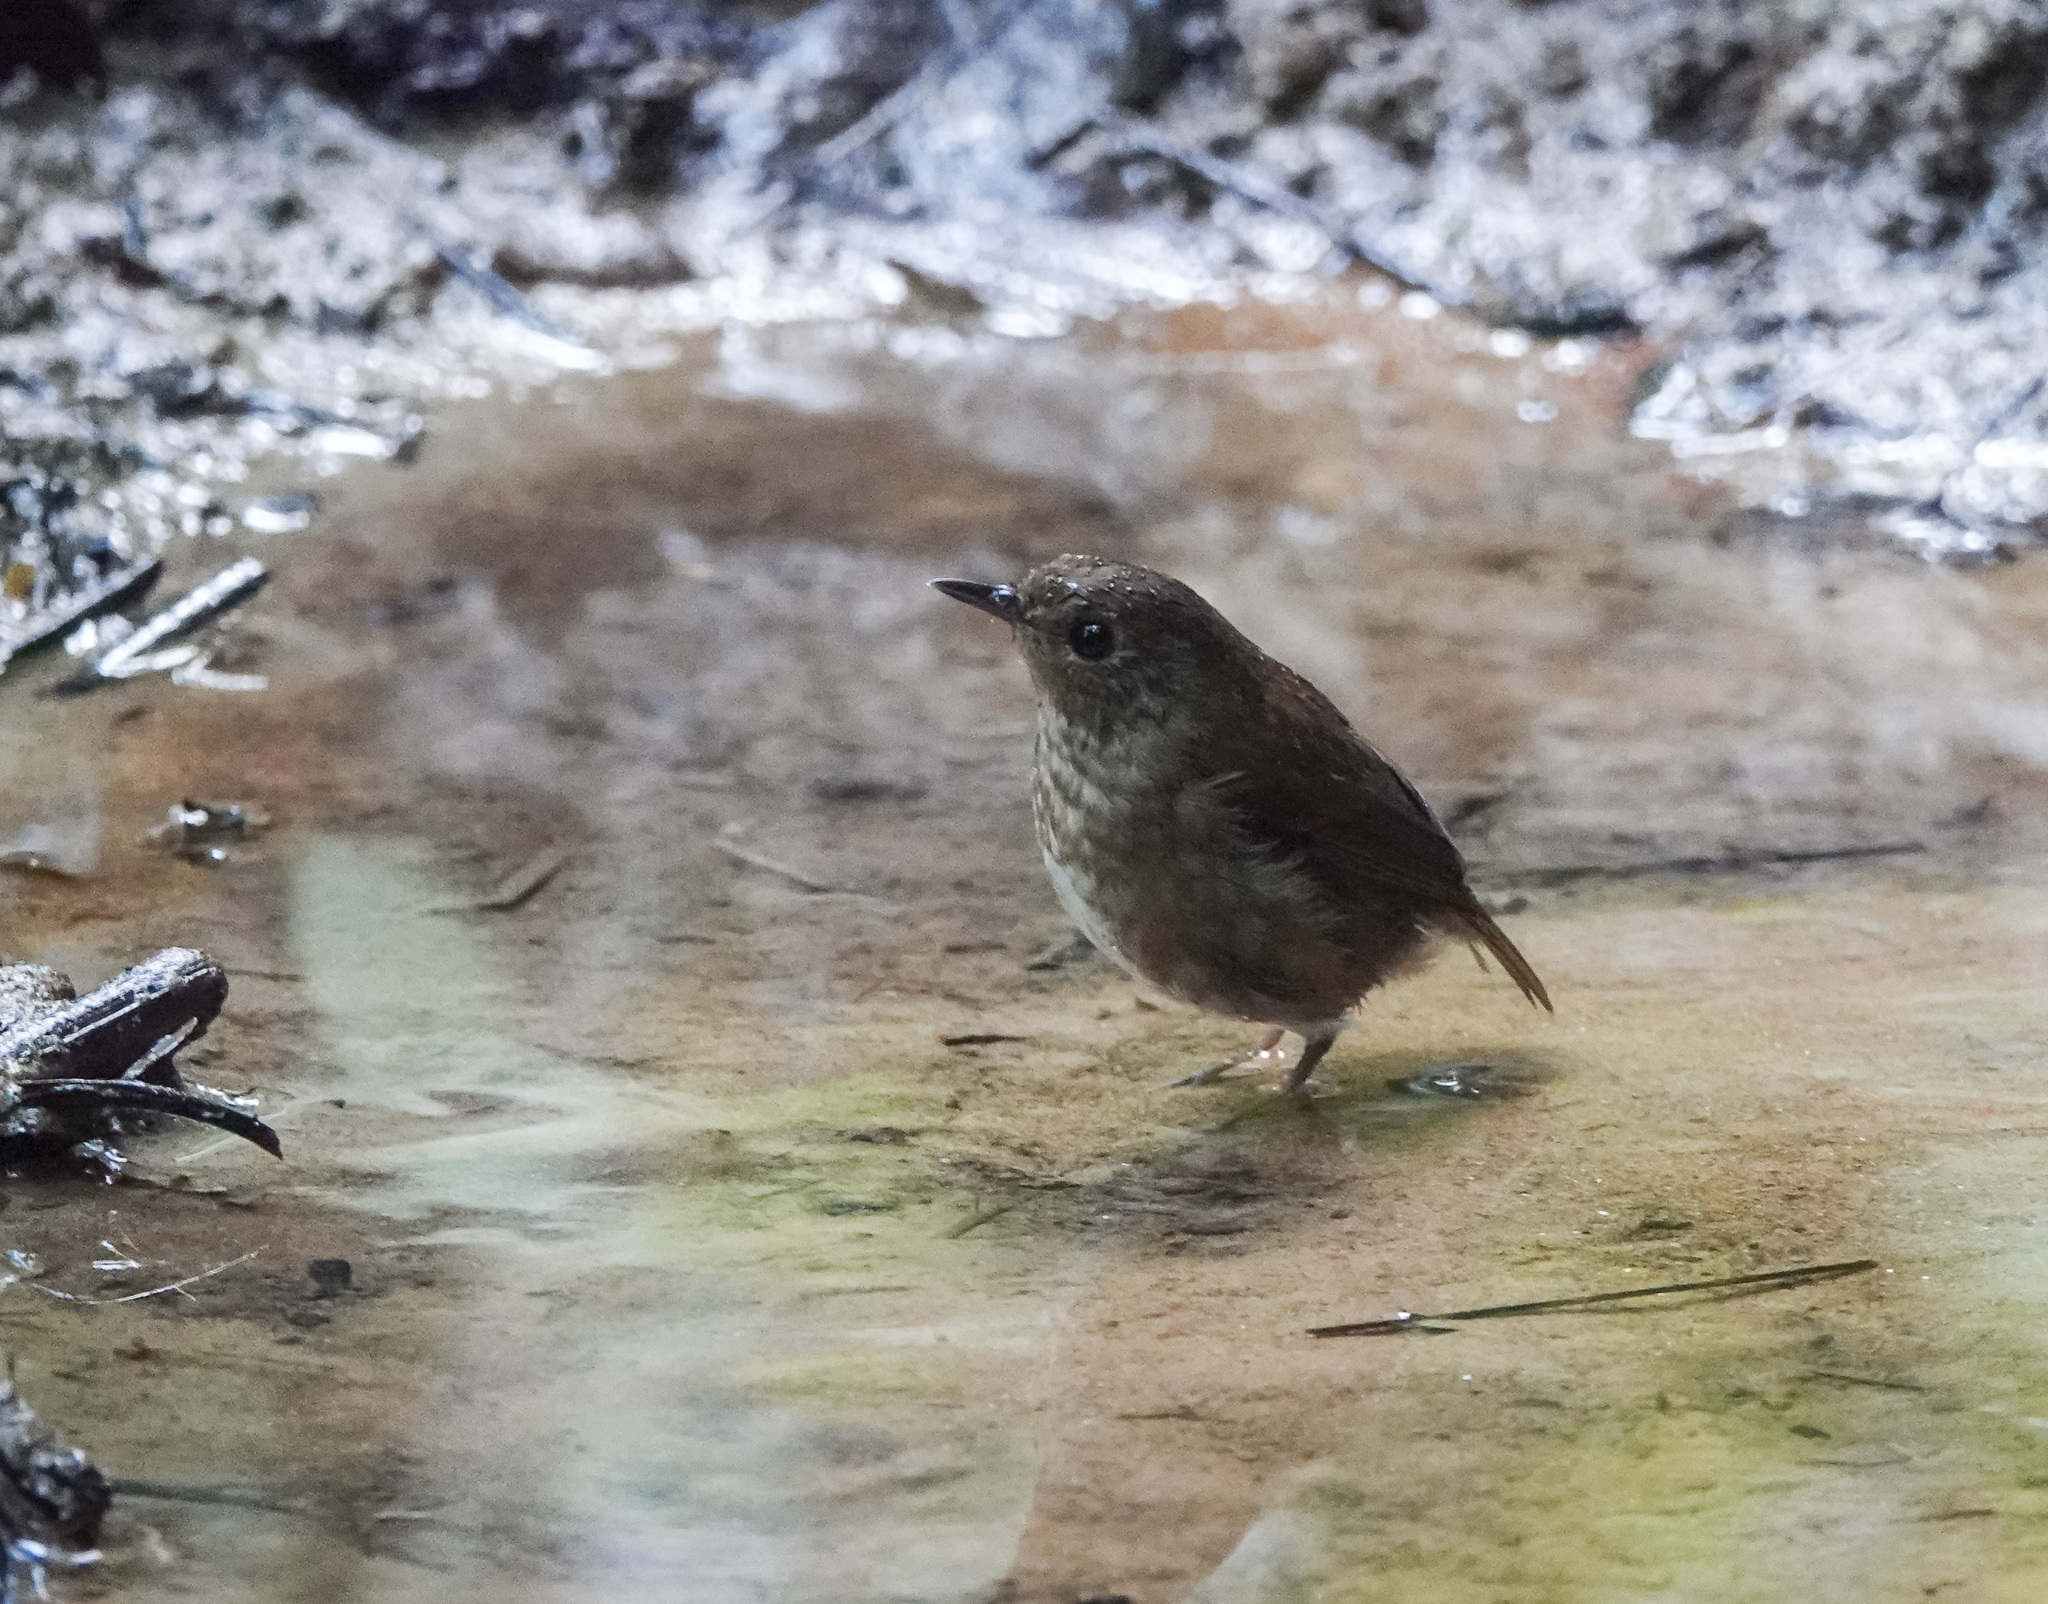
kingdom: Animalia
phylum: Chordata
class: Aves
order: Passeriformes
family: Muscicapidae
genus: Brachypteryx
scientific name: Brachypteryx leucophris
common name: Lesser shortwing
